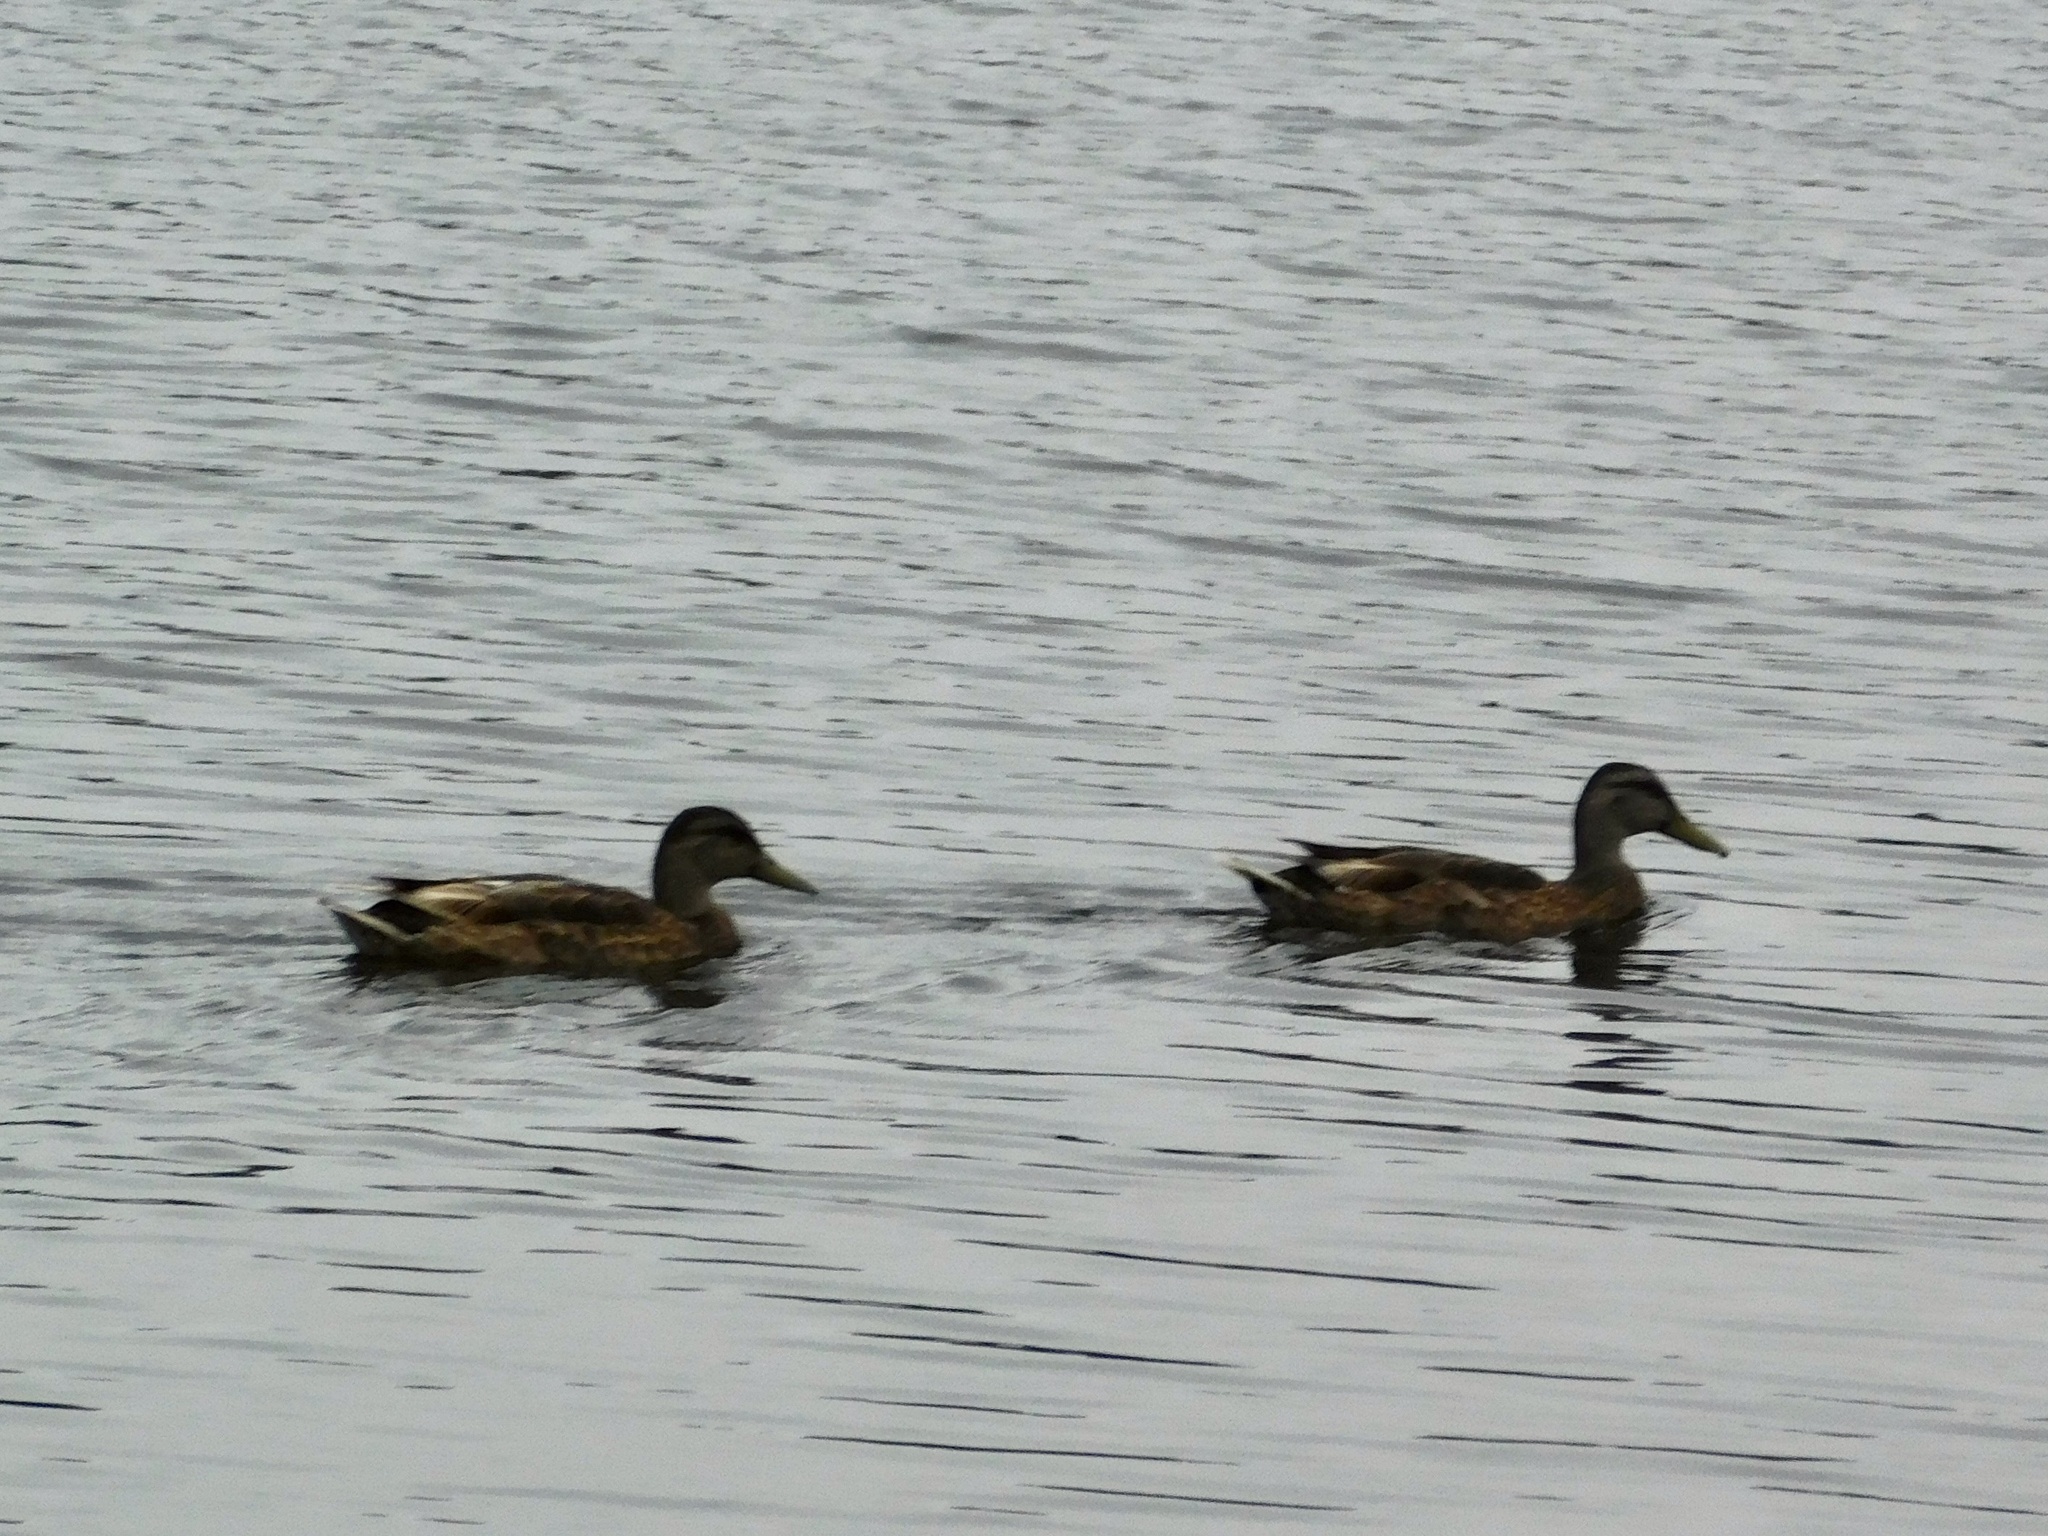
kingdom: Animalia
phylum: Chordata
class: Aves
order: Anseriformes
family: Anatidae
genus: Anas
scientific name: Anas platyrhynchos
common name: Mallard
